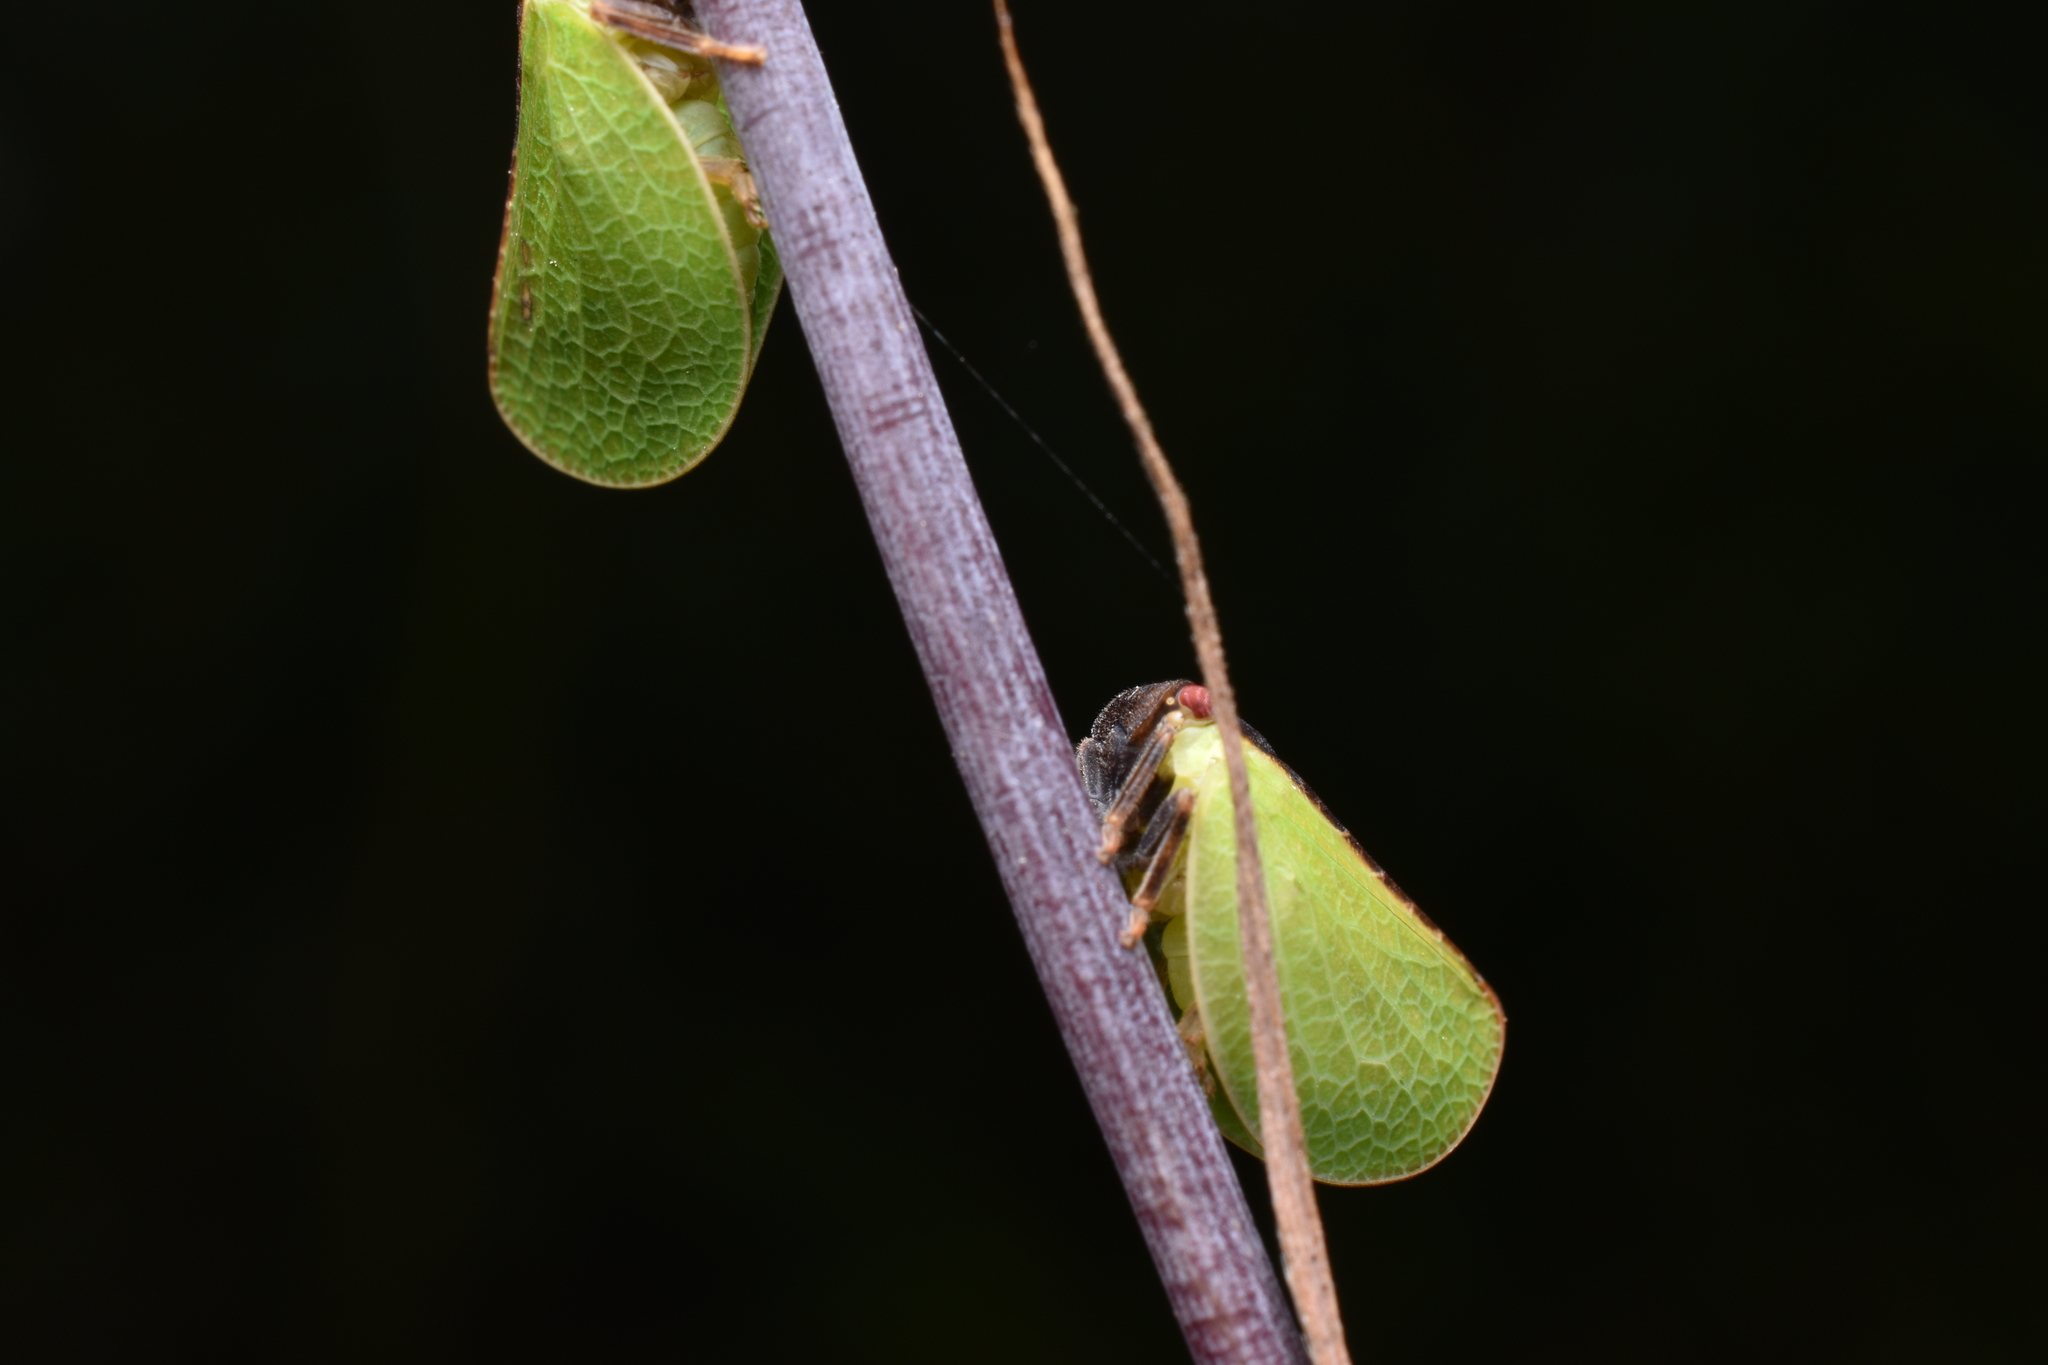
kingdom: Animalia
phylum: Arthropoda
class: Insecta
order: Hemiptera
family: Acanaloniidae
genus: Acanalonia
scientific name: Acanalonia bivittata
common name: Two-striped planthopper
